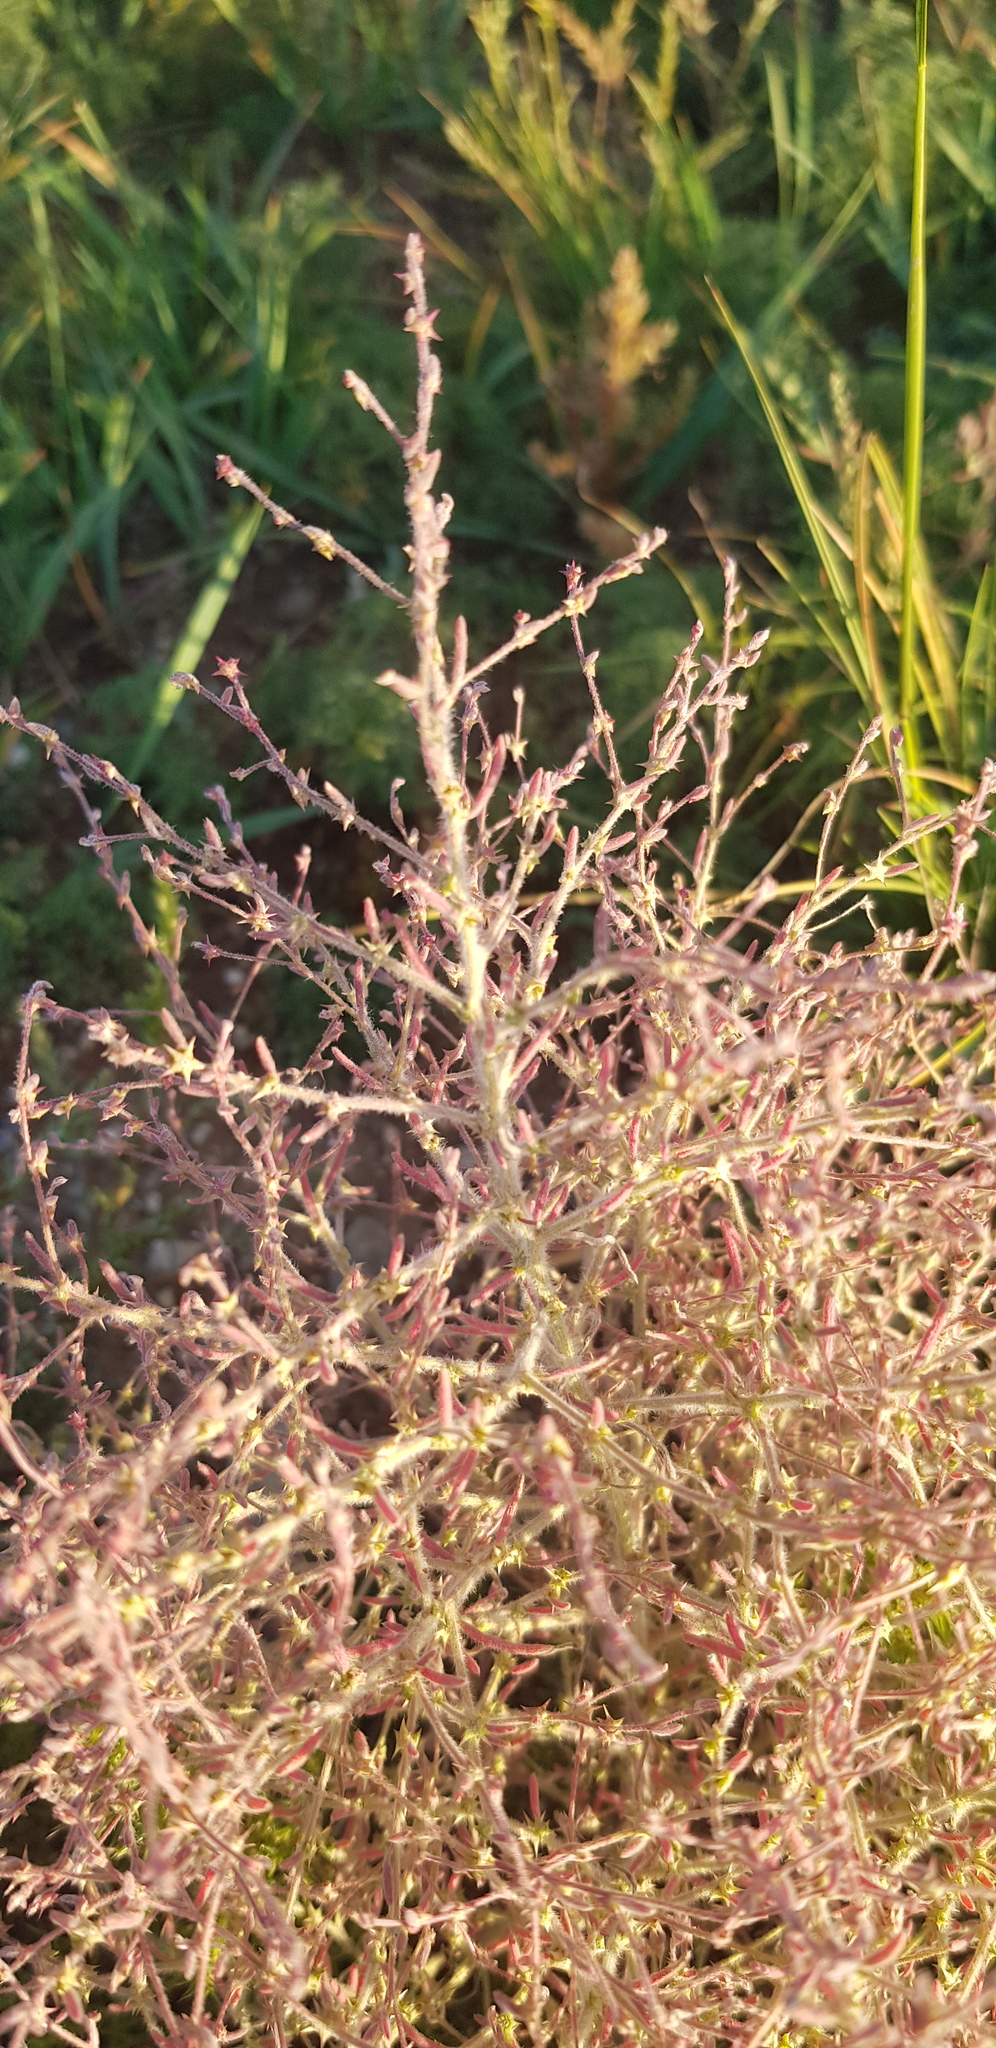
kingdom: Plantae
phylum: Tracheophyta
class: Magnoliopsida
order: Caryophyllales
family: Amaranthaceae
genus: Grubovia
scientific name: Grubovia dasyphylla
